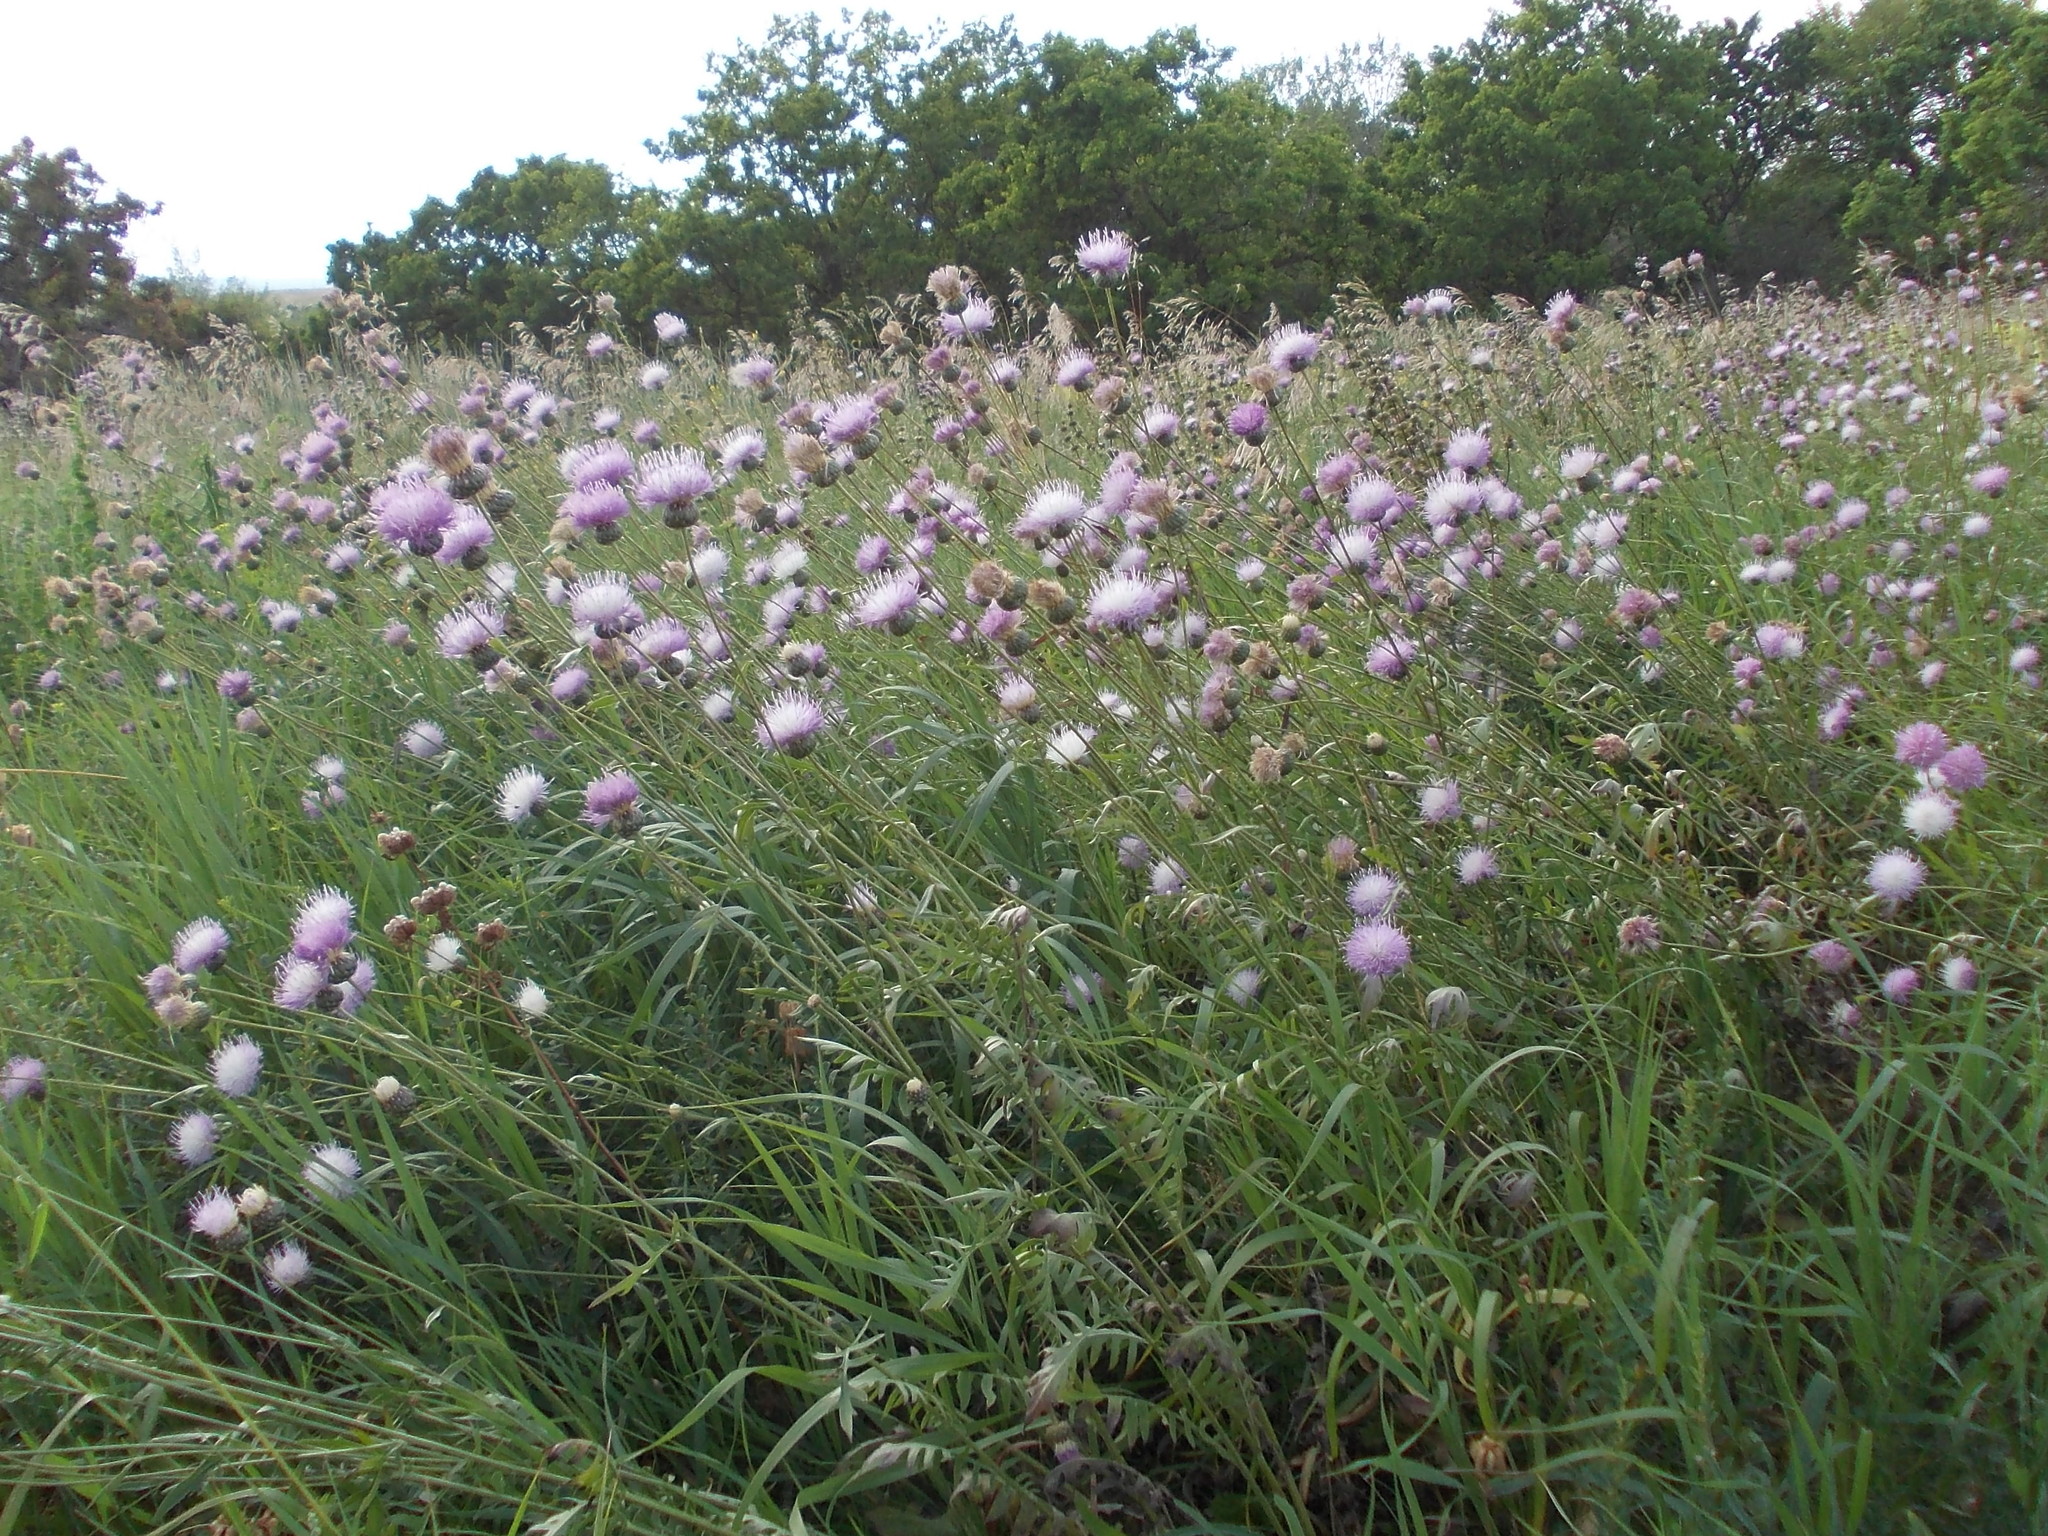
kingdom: Plantae
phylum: Tracheophyta
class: Magnoliopsida
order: Asterales
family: Asteraceae
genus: Klasea
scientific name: Klasea radiata
